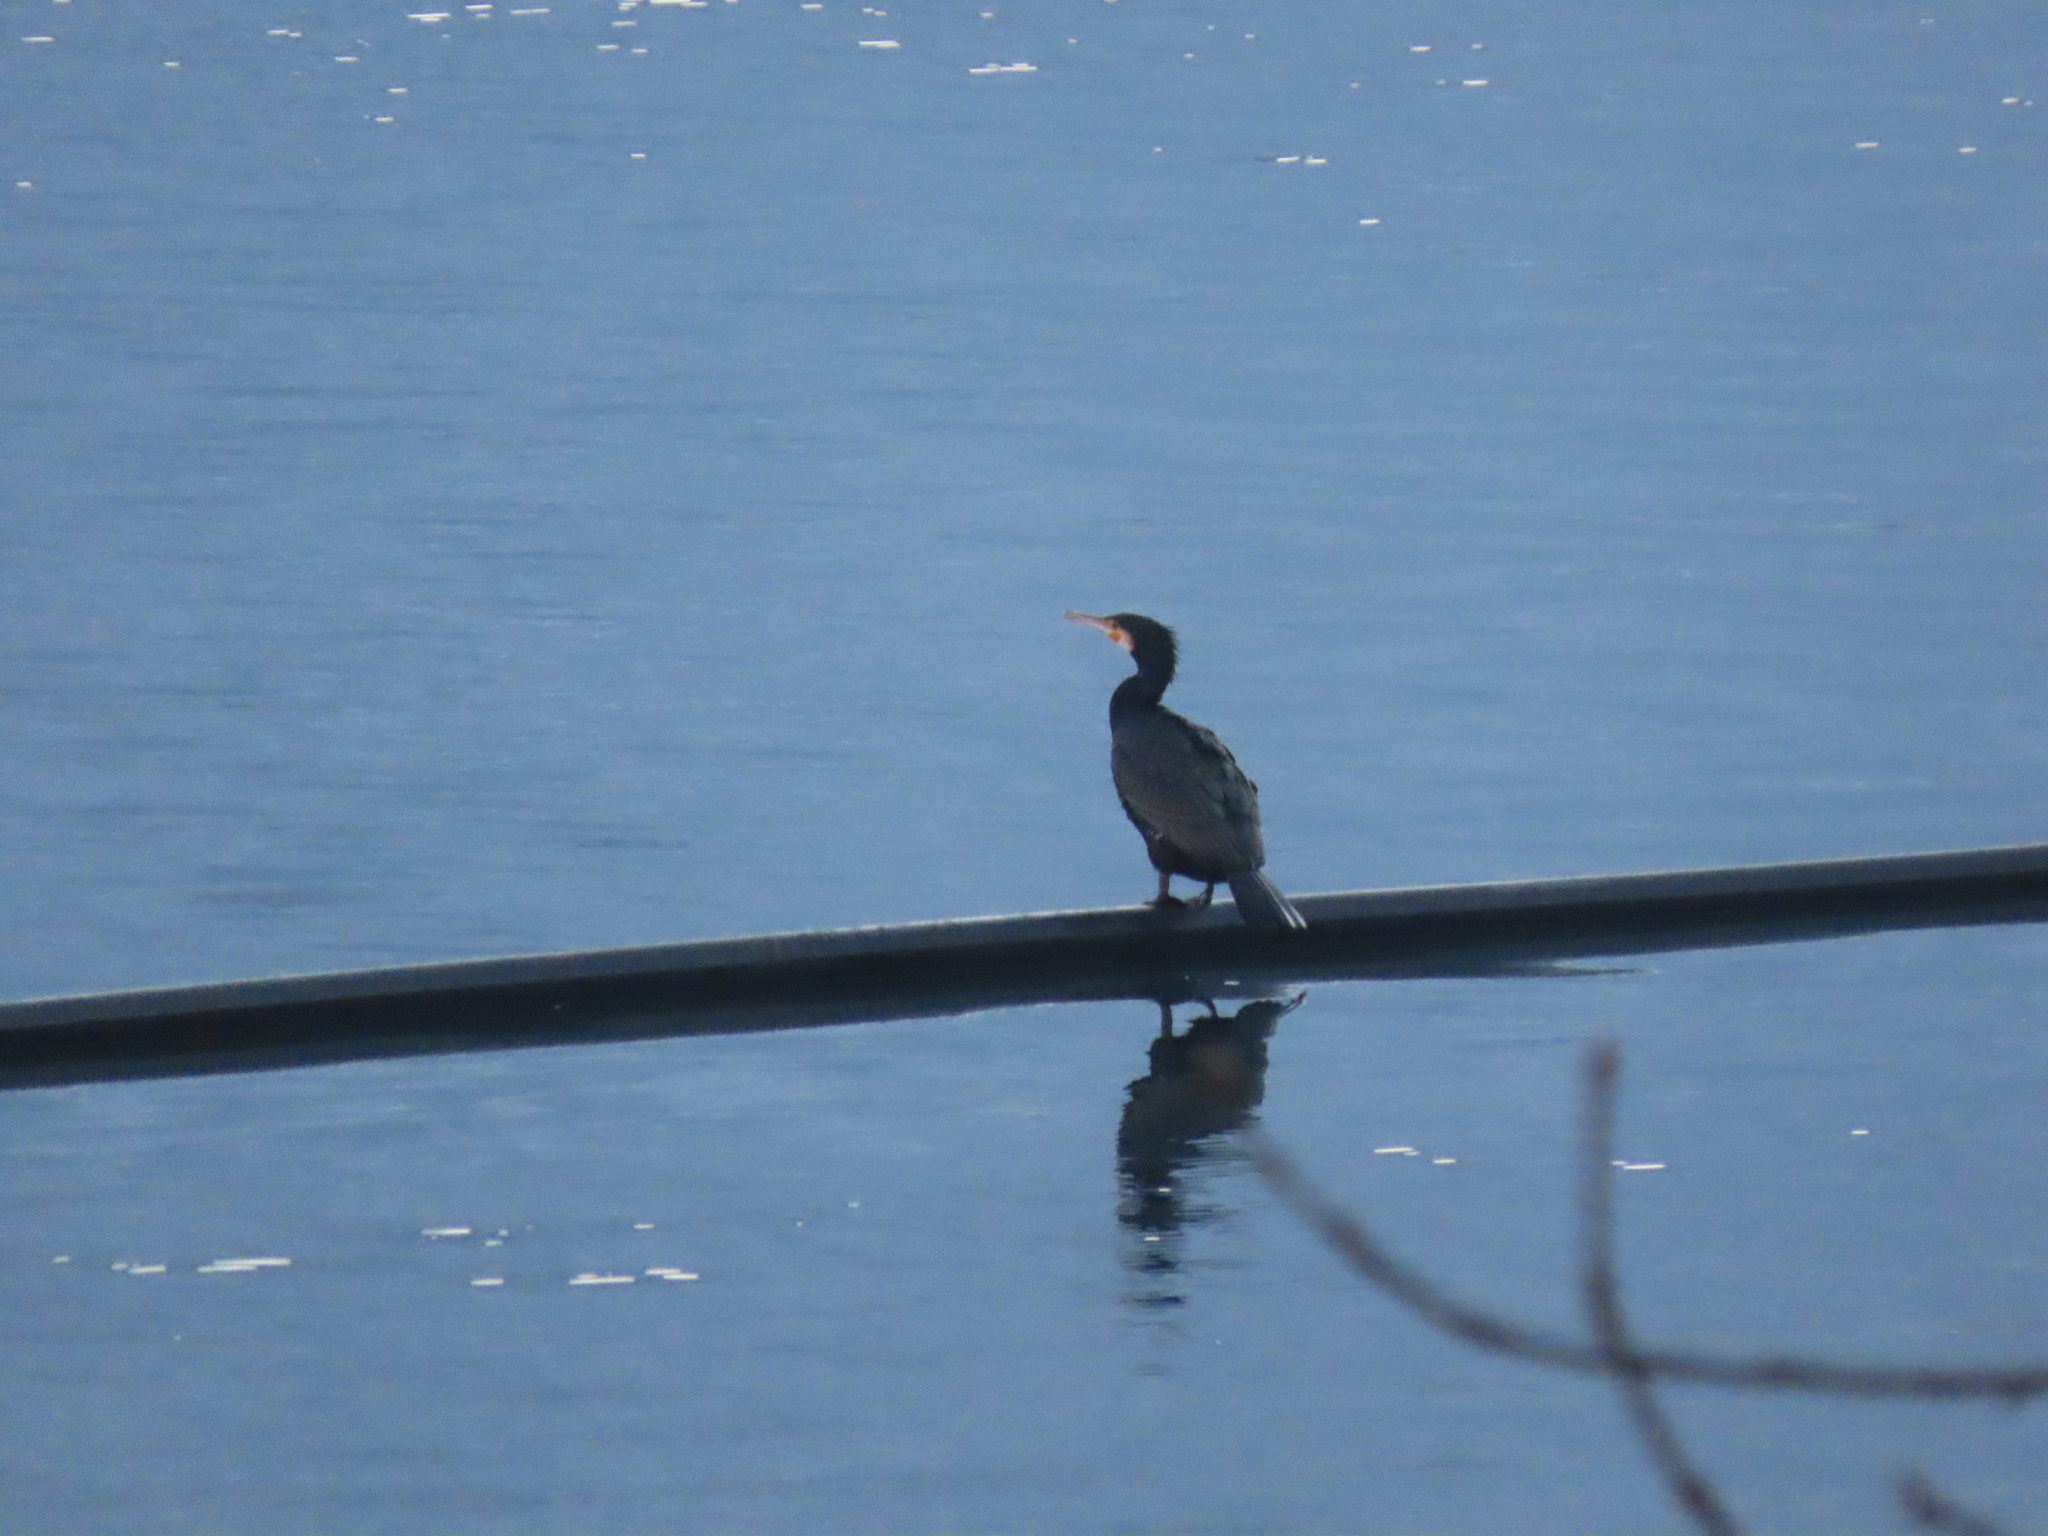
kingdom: Animalia
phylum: Chordata
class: Aves
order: Suliformes
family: Phalacrocoracidae
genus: Phalacrocorax
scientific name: Phalacrocorax carbo
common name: Great cormorant
